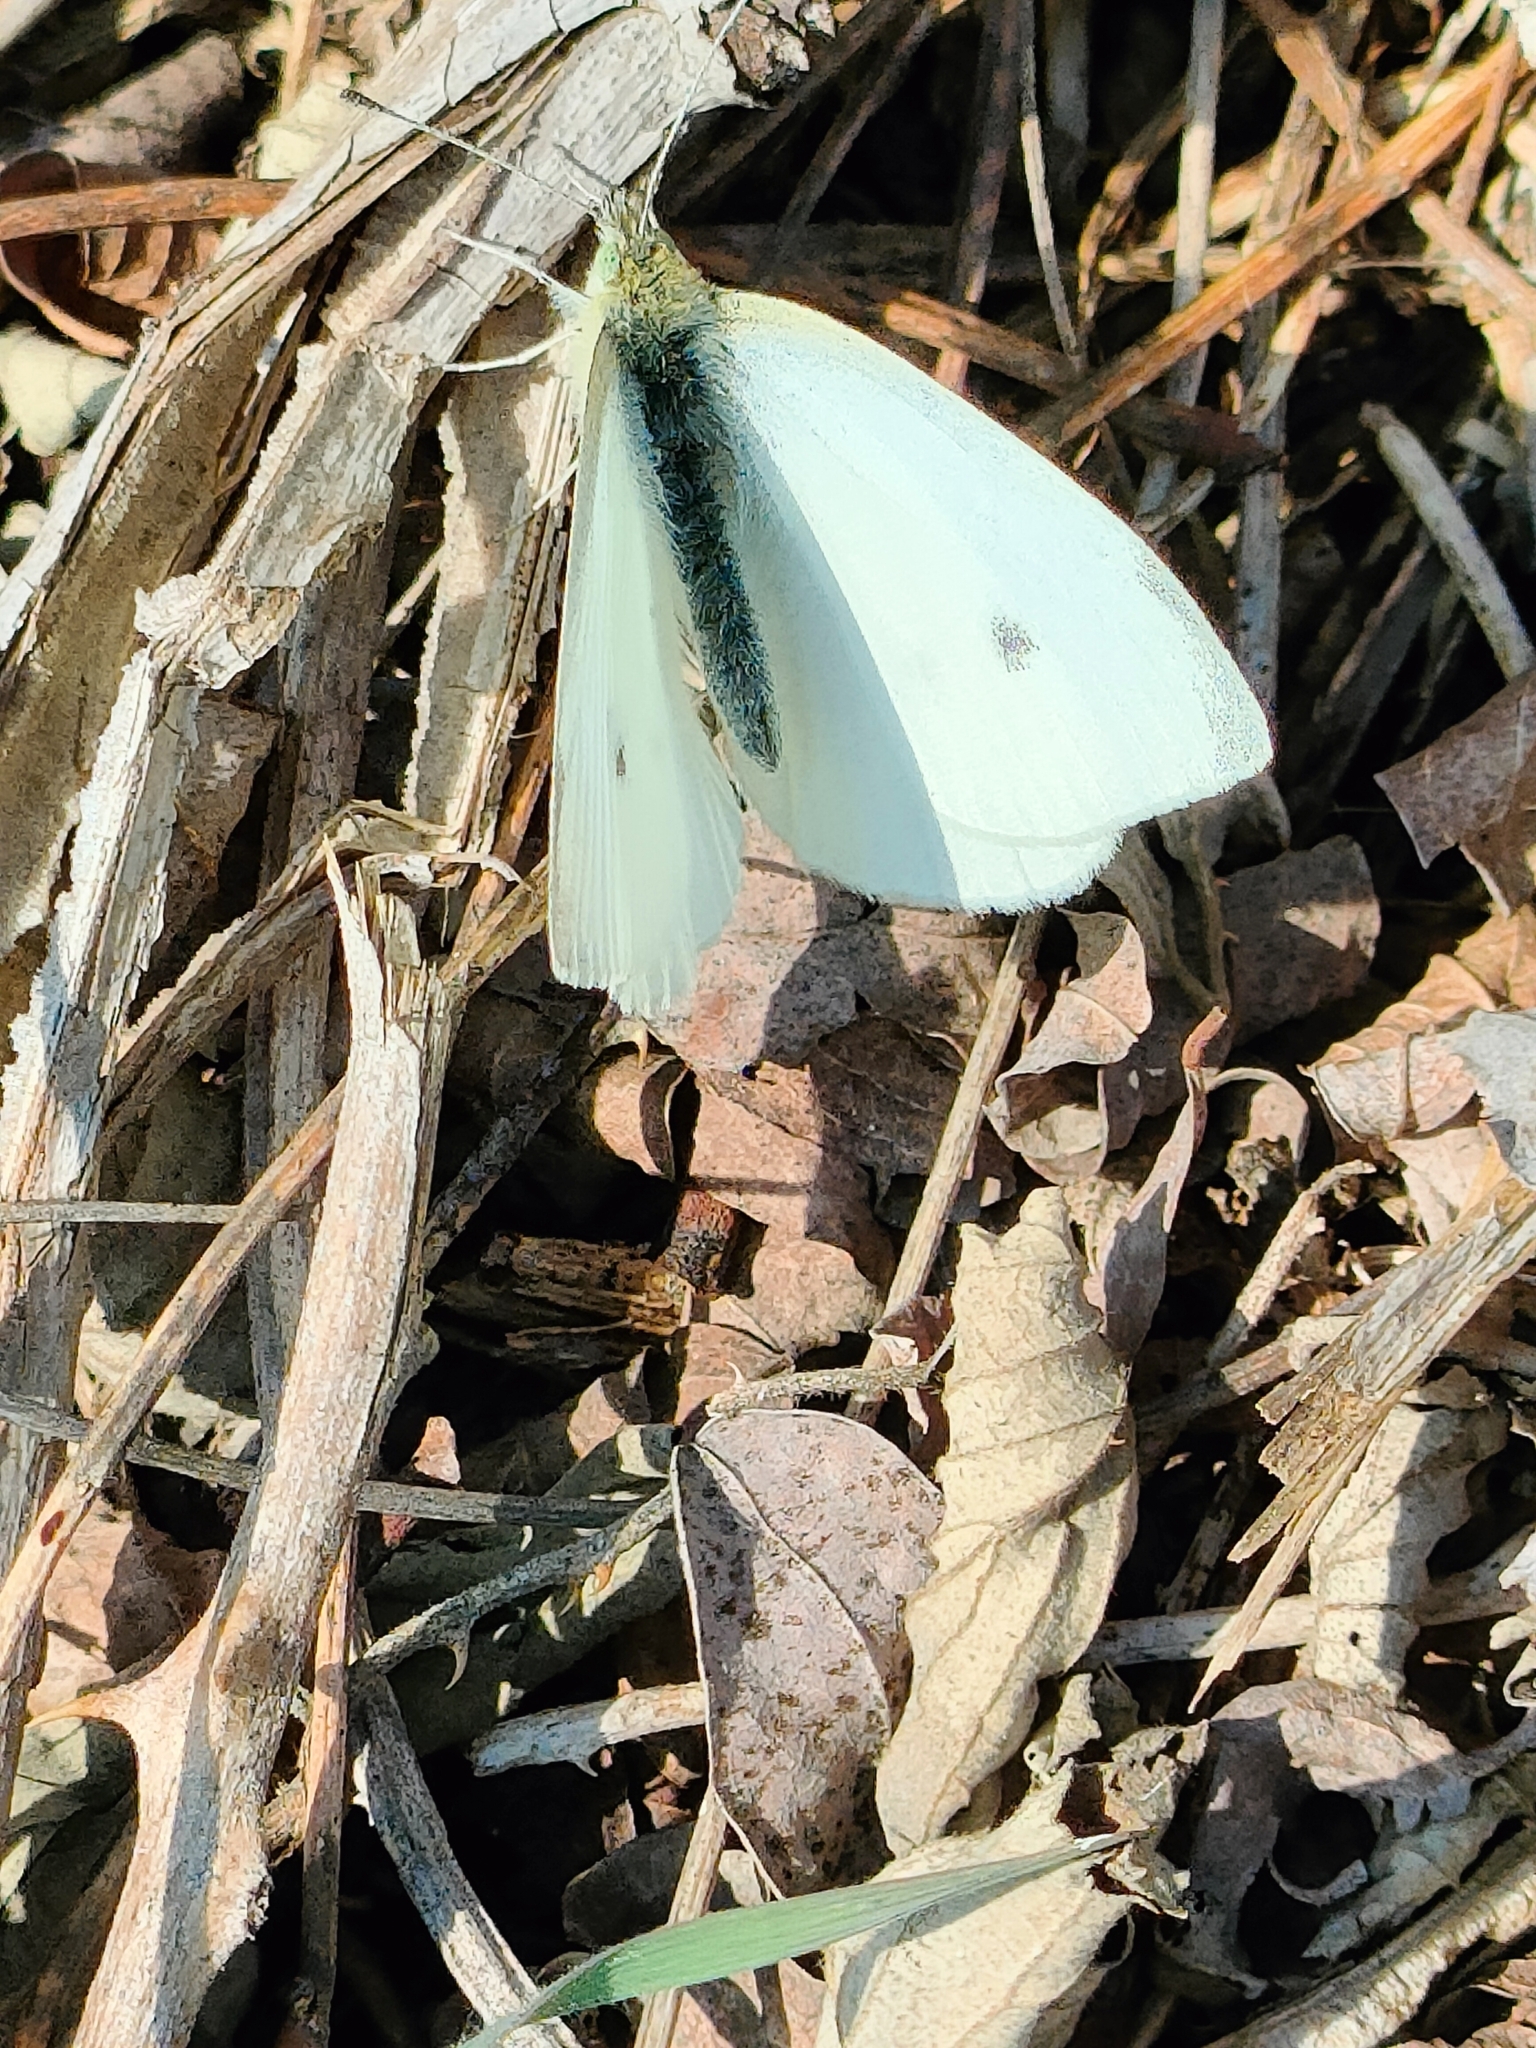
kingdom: Animalia
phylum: Arthropoda
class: Insecta
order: Lepidoptera
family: Pieridae
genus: Pieris
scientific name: Pieris rapae
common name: Small white
